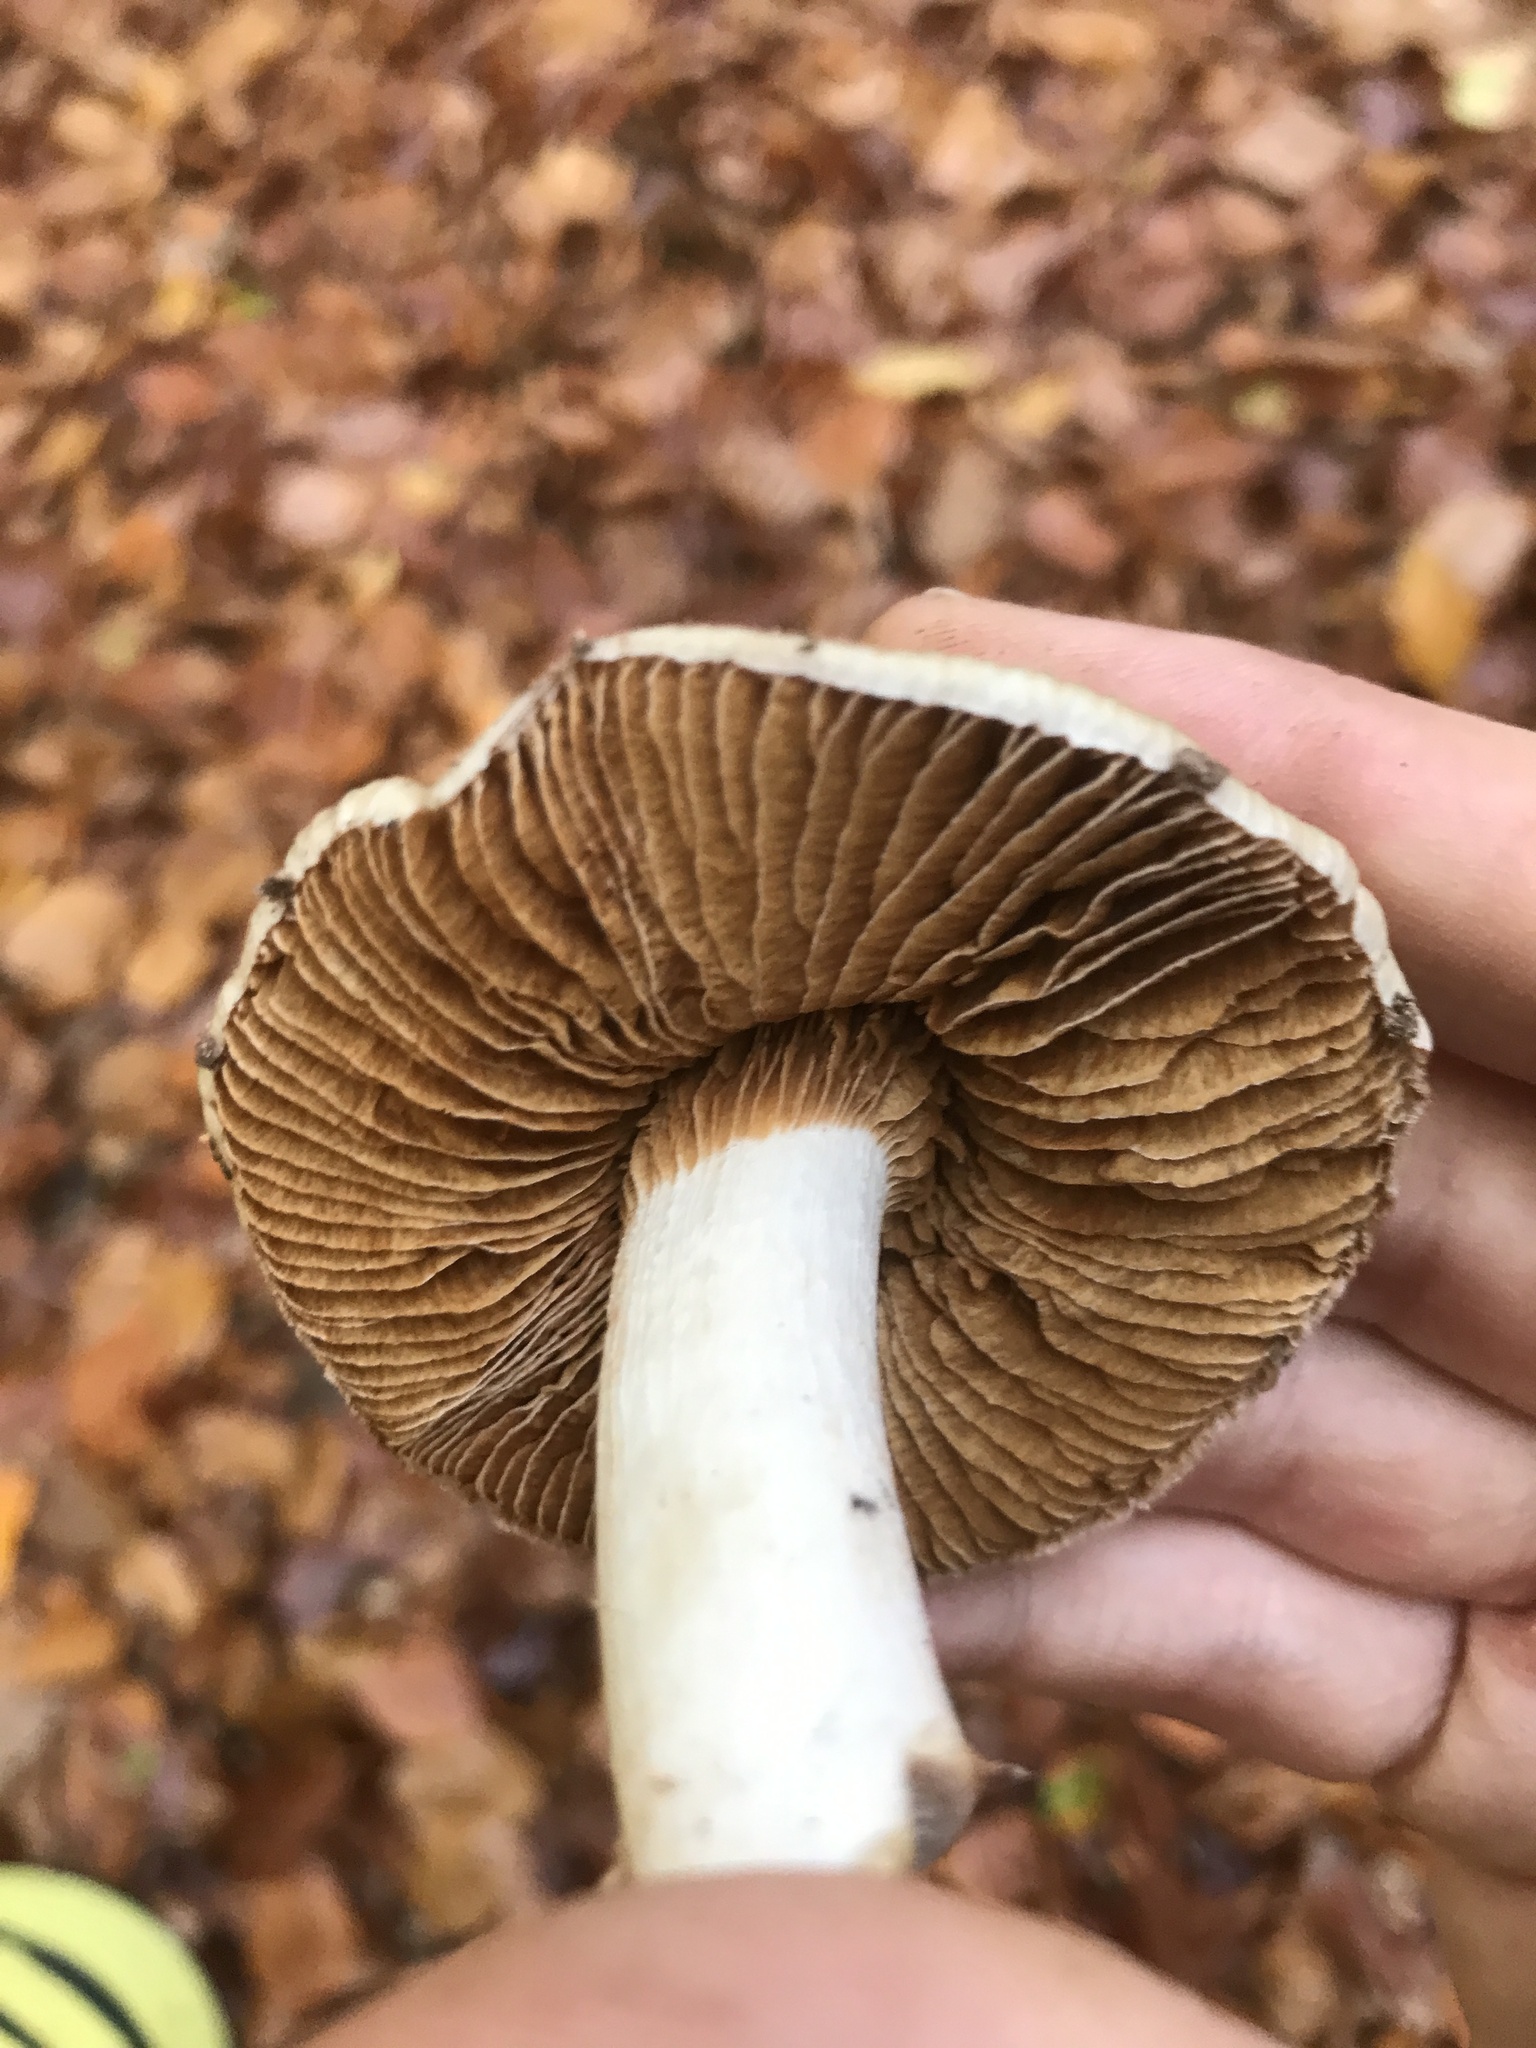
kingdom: Fungi
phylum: Basidiomycota
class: Agaricomycetes
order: Agaricales
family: Cortinariaceae
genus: Cortinarius
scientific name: Cortinarius livido-ochraceus
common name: Wrinkled webcap
